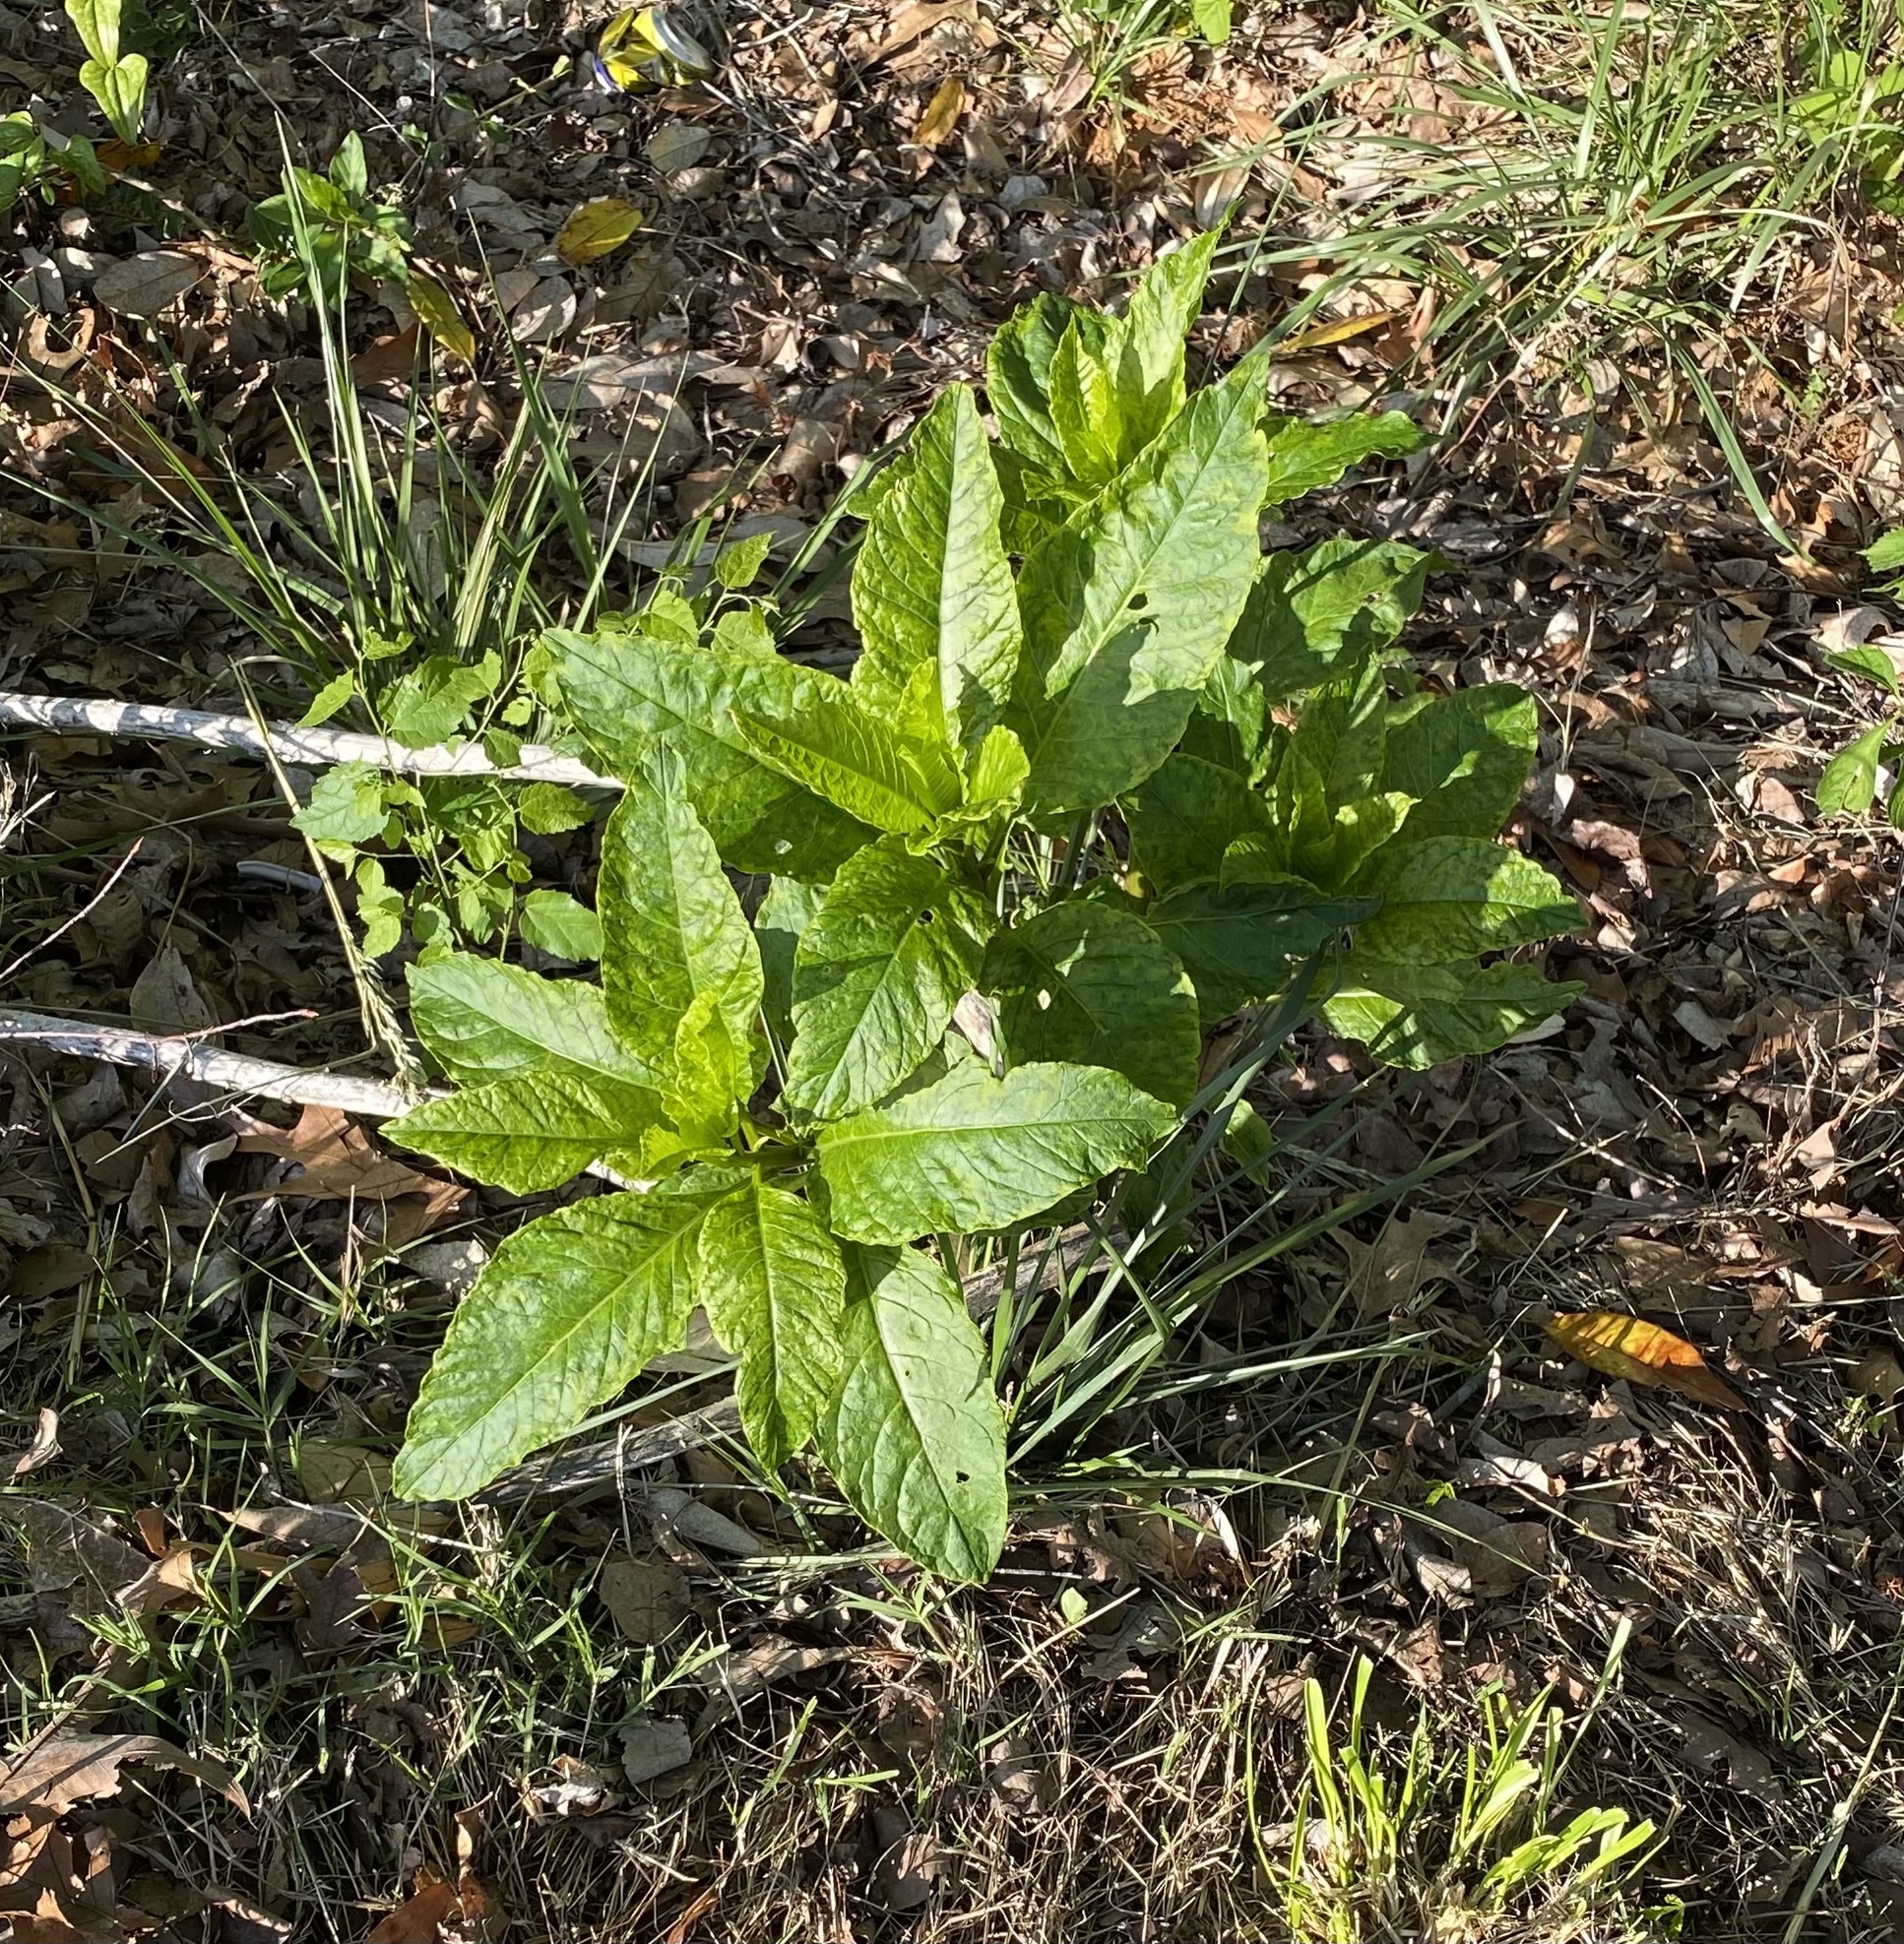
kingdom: Plantae
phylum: Tracheophyta
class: Magnoliopsida
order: Caryophyllales
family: Phytolaccaceae
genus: Phytolacca
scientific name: Phytolacca americana
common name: American pokeweed
